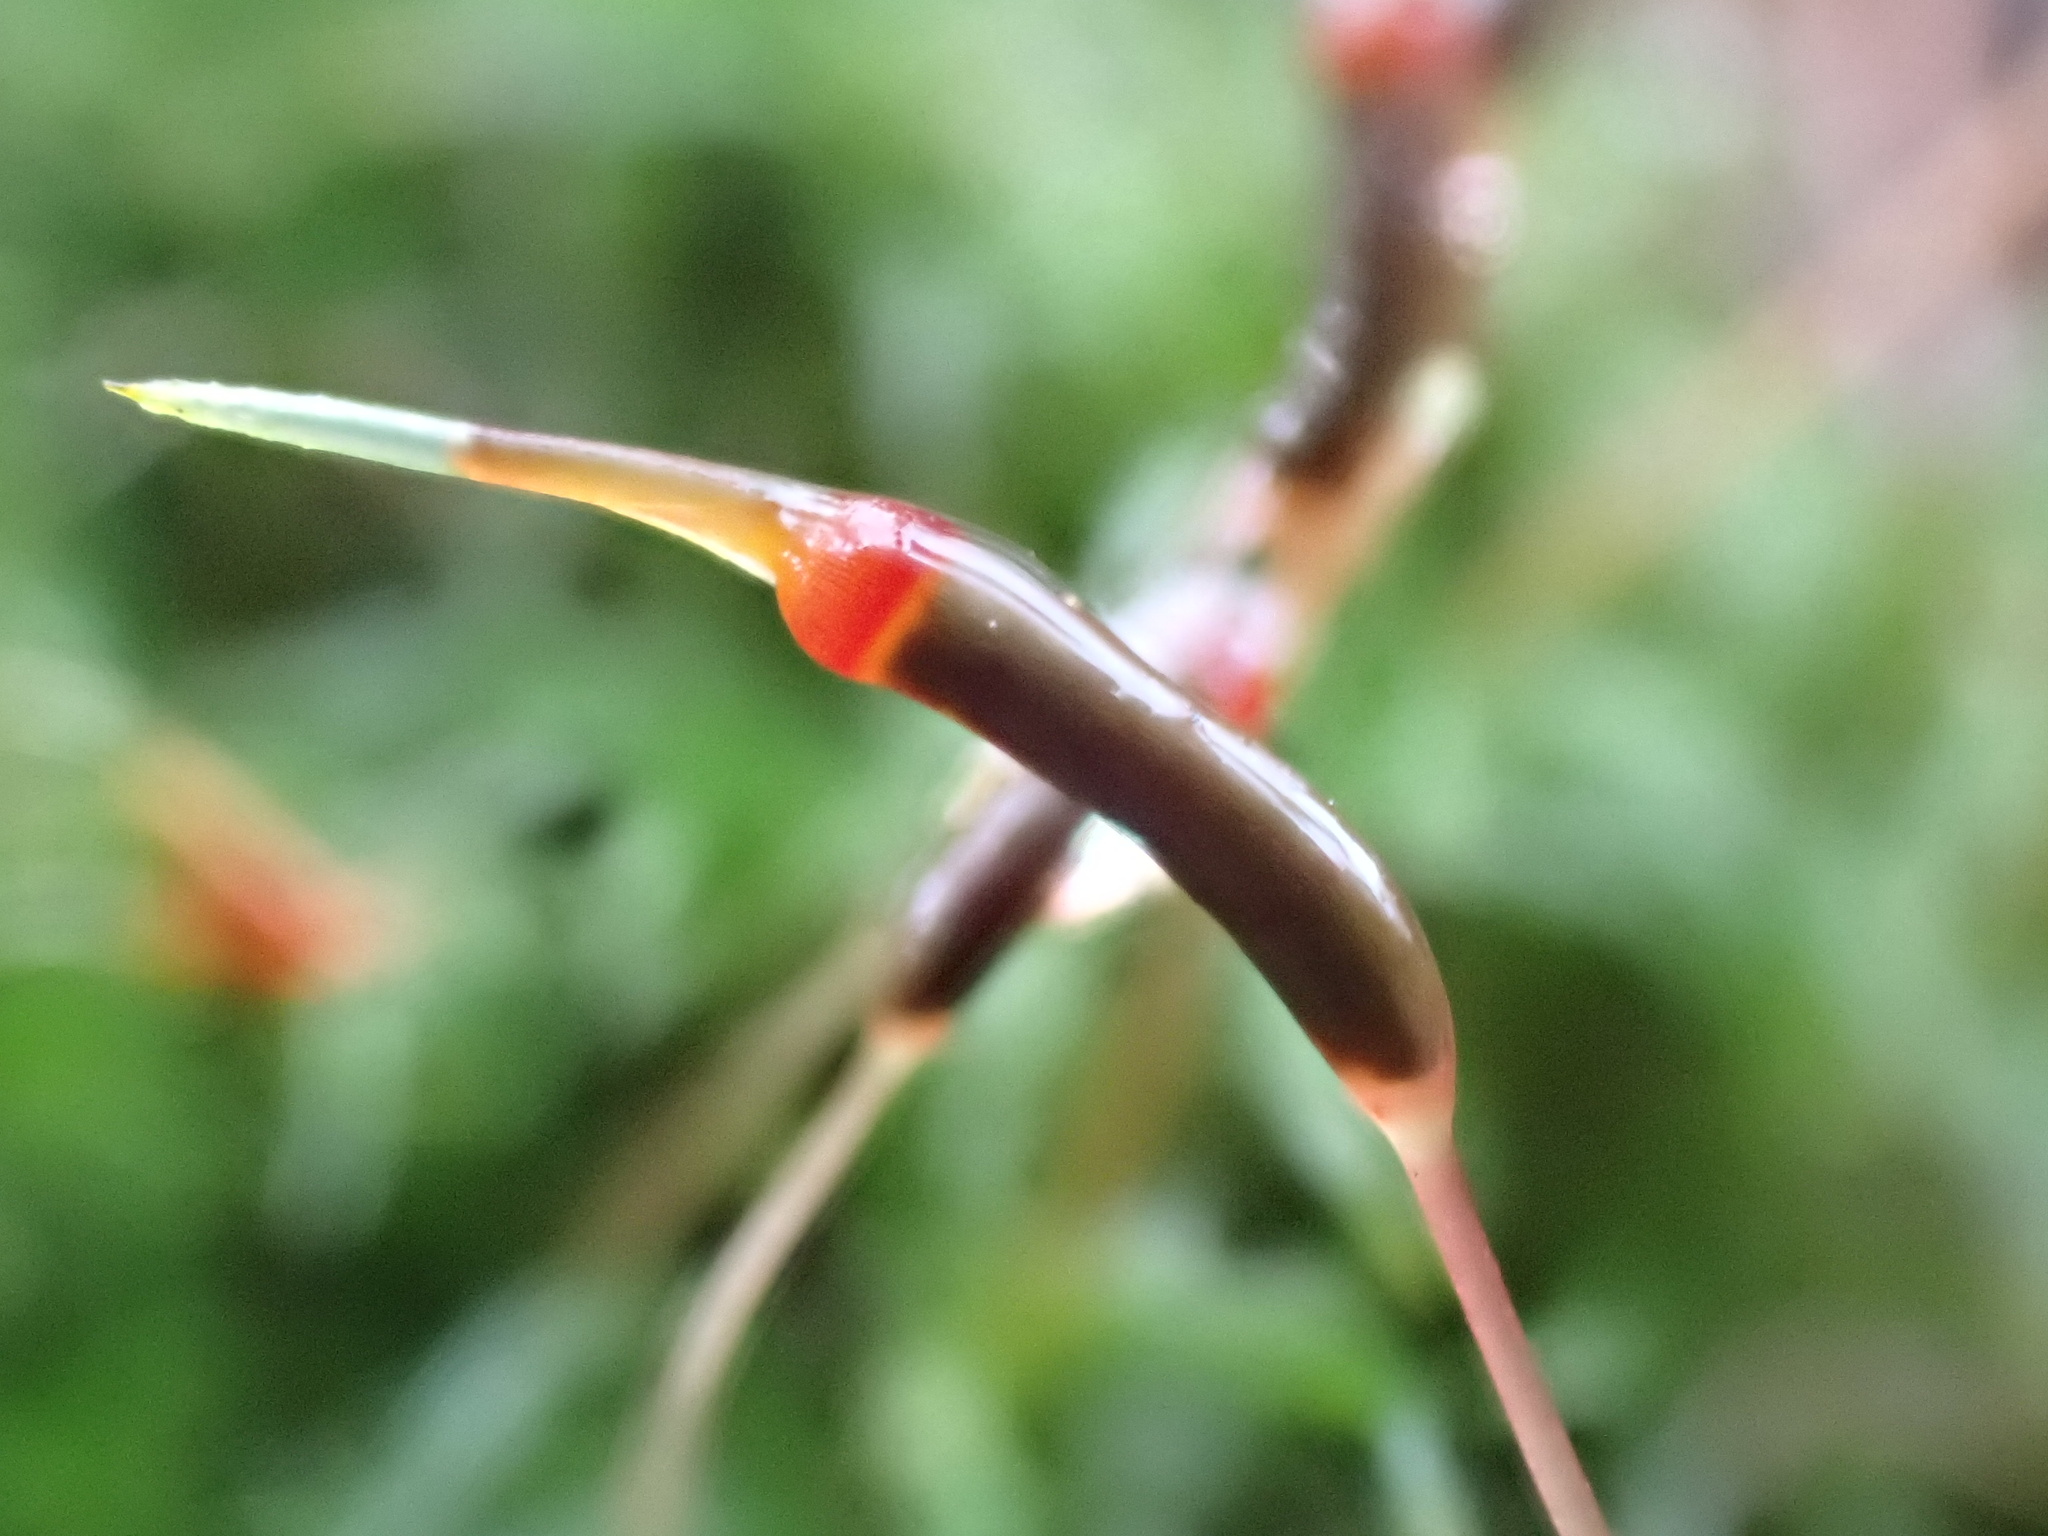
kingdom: Plantae
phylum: Bryophyta
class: Polytrichopsida
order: Polytrichales
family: Polytrichaceae
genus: Atrichum
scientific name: Atrichum undulatum
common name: Common smoothcap
